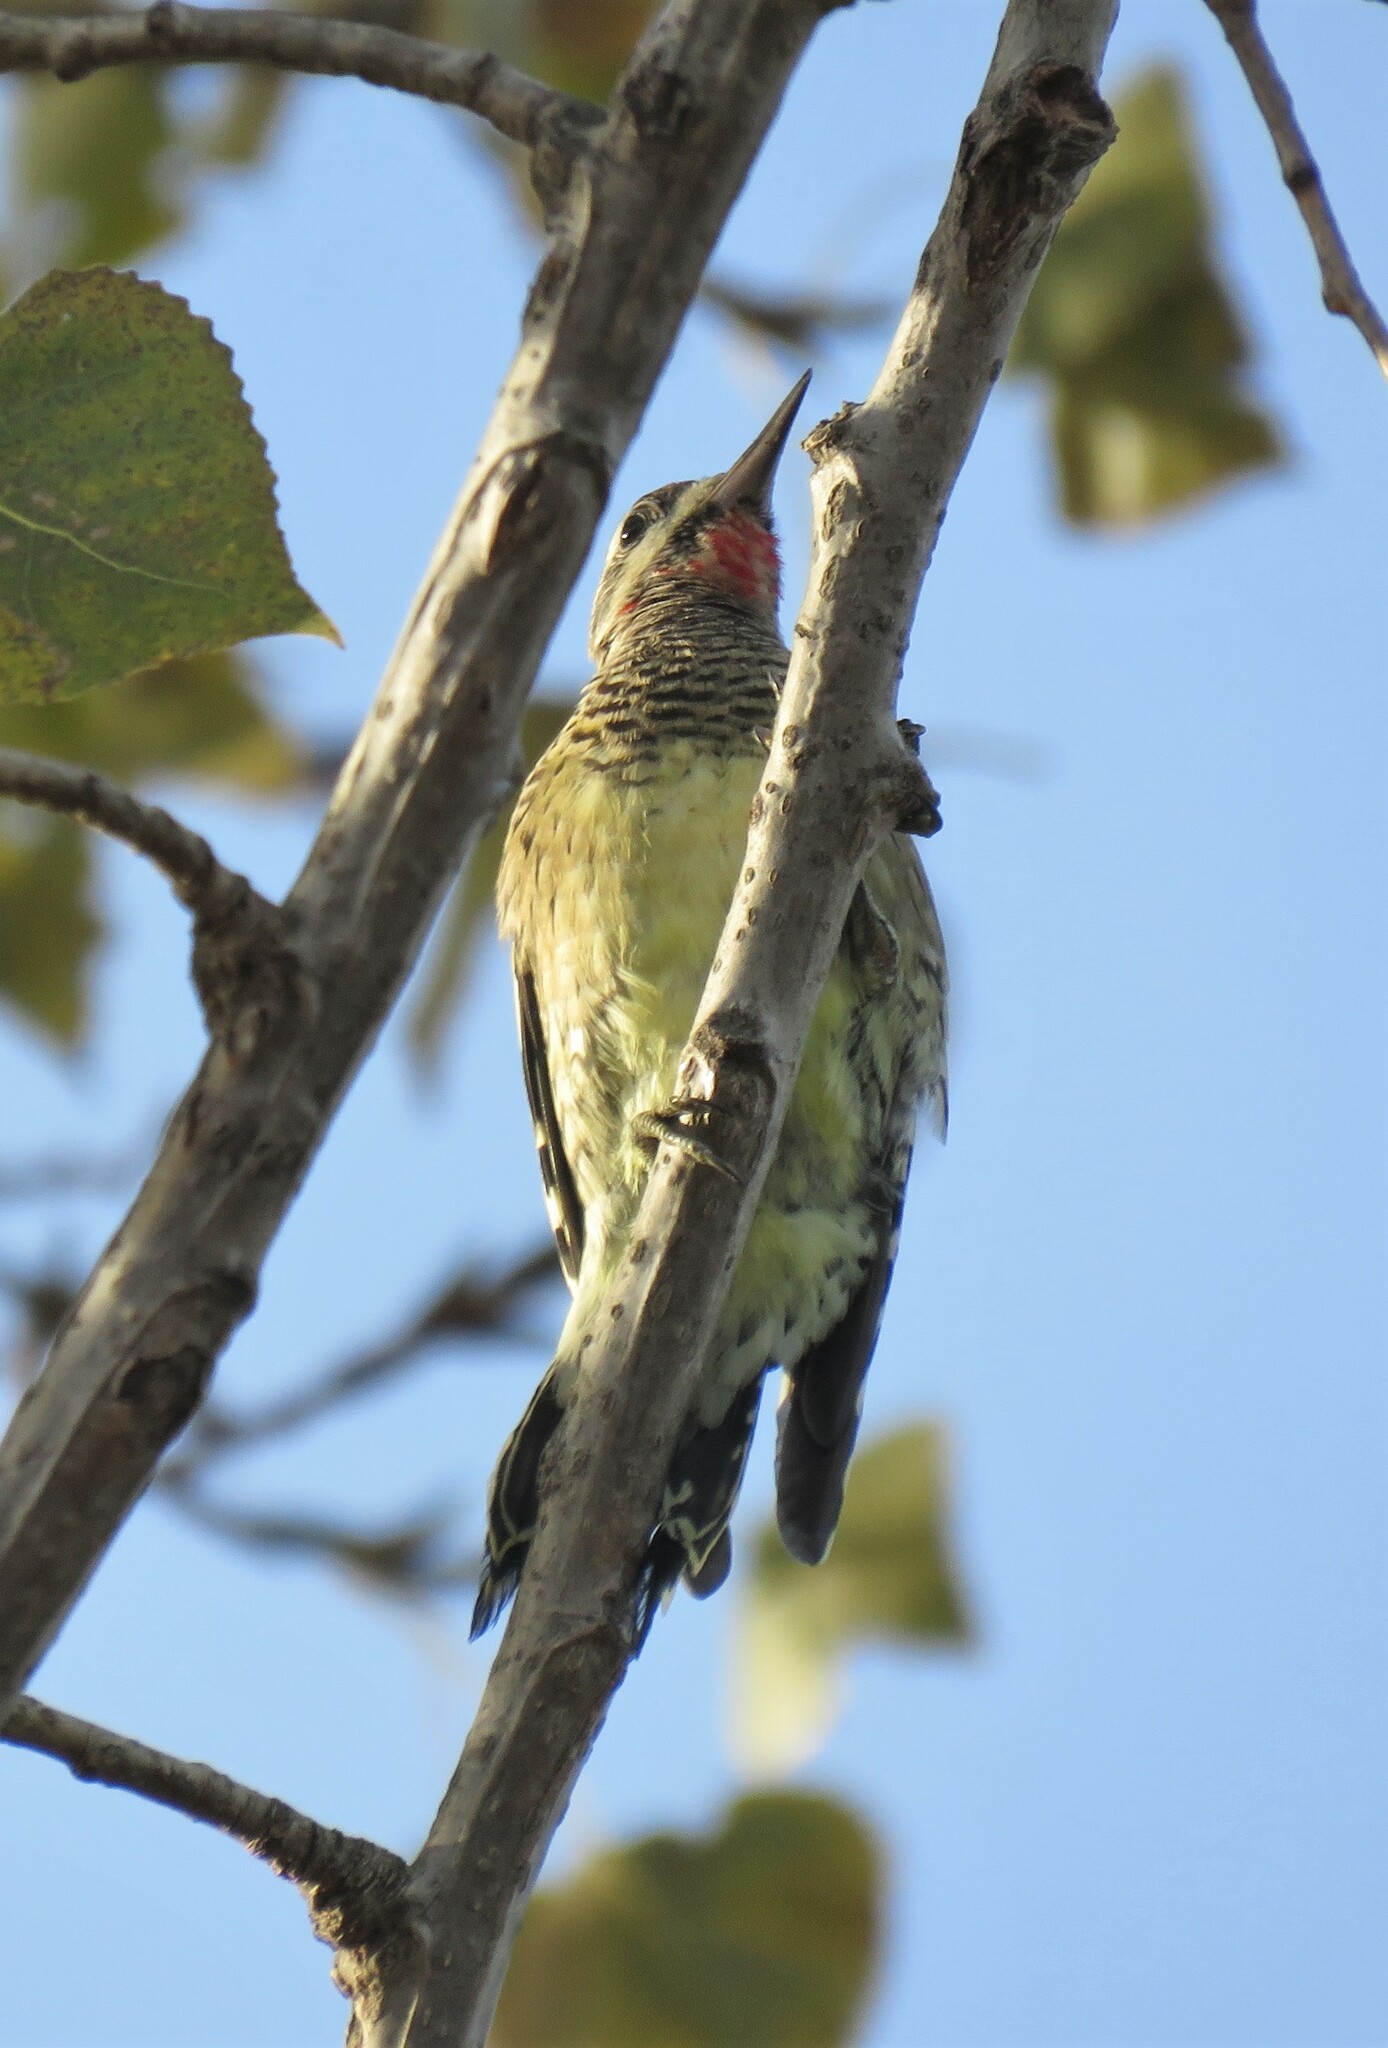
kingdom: Animalia
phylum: Chordata
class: Aves
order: Piciformes
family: Picidae
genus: Sphyrapicus
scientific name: Sphyrapicus varius
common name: Yellow-bellied sapsucker
